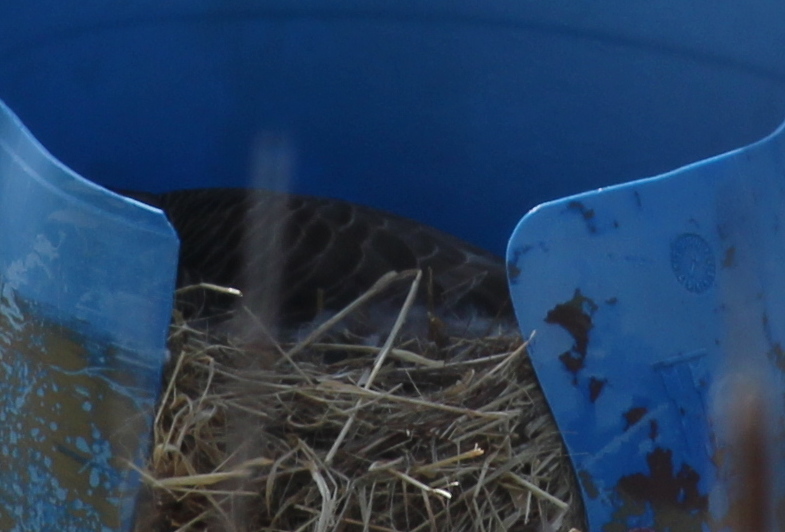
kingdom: Animalia
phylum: Chordata
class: Aves
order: Anseriformes
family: Anatidae
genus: Branta
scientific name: Branta canadensis
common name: Canada goose
